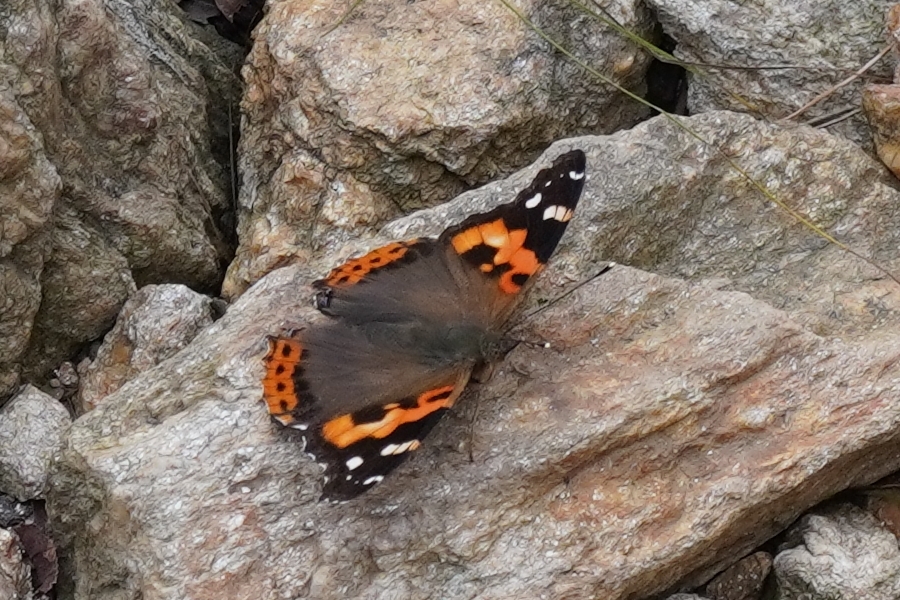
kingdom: Animalia
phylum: Arthropoda
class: Insecta
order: Lepidoptera
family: Nymphalidae
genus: Vanessa
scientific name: Vanessa indica
